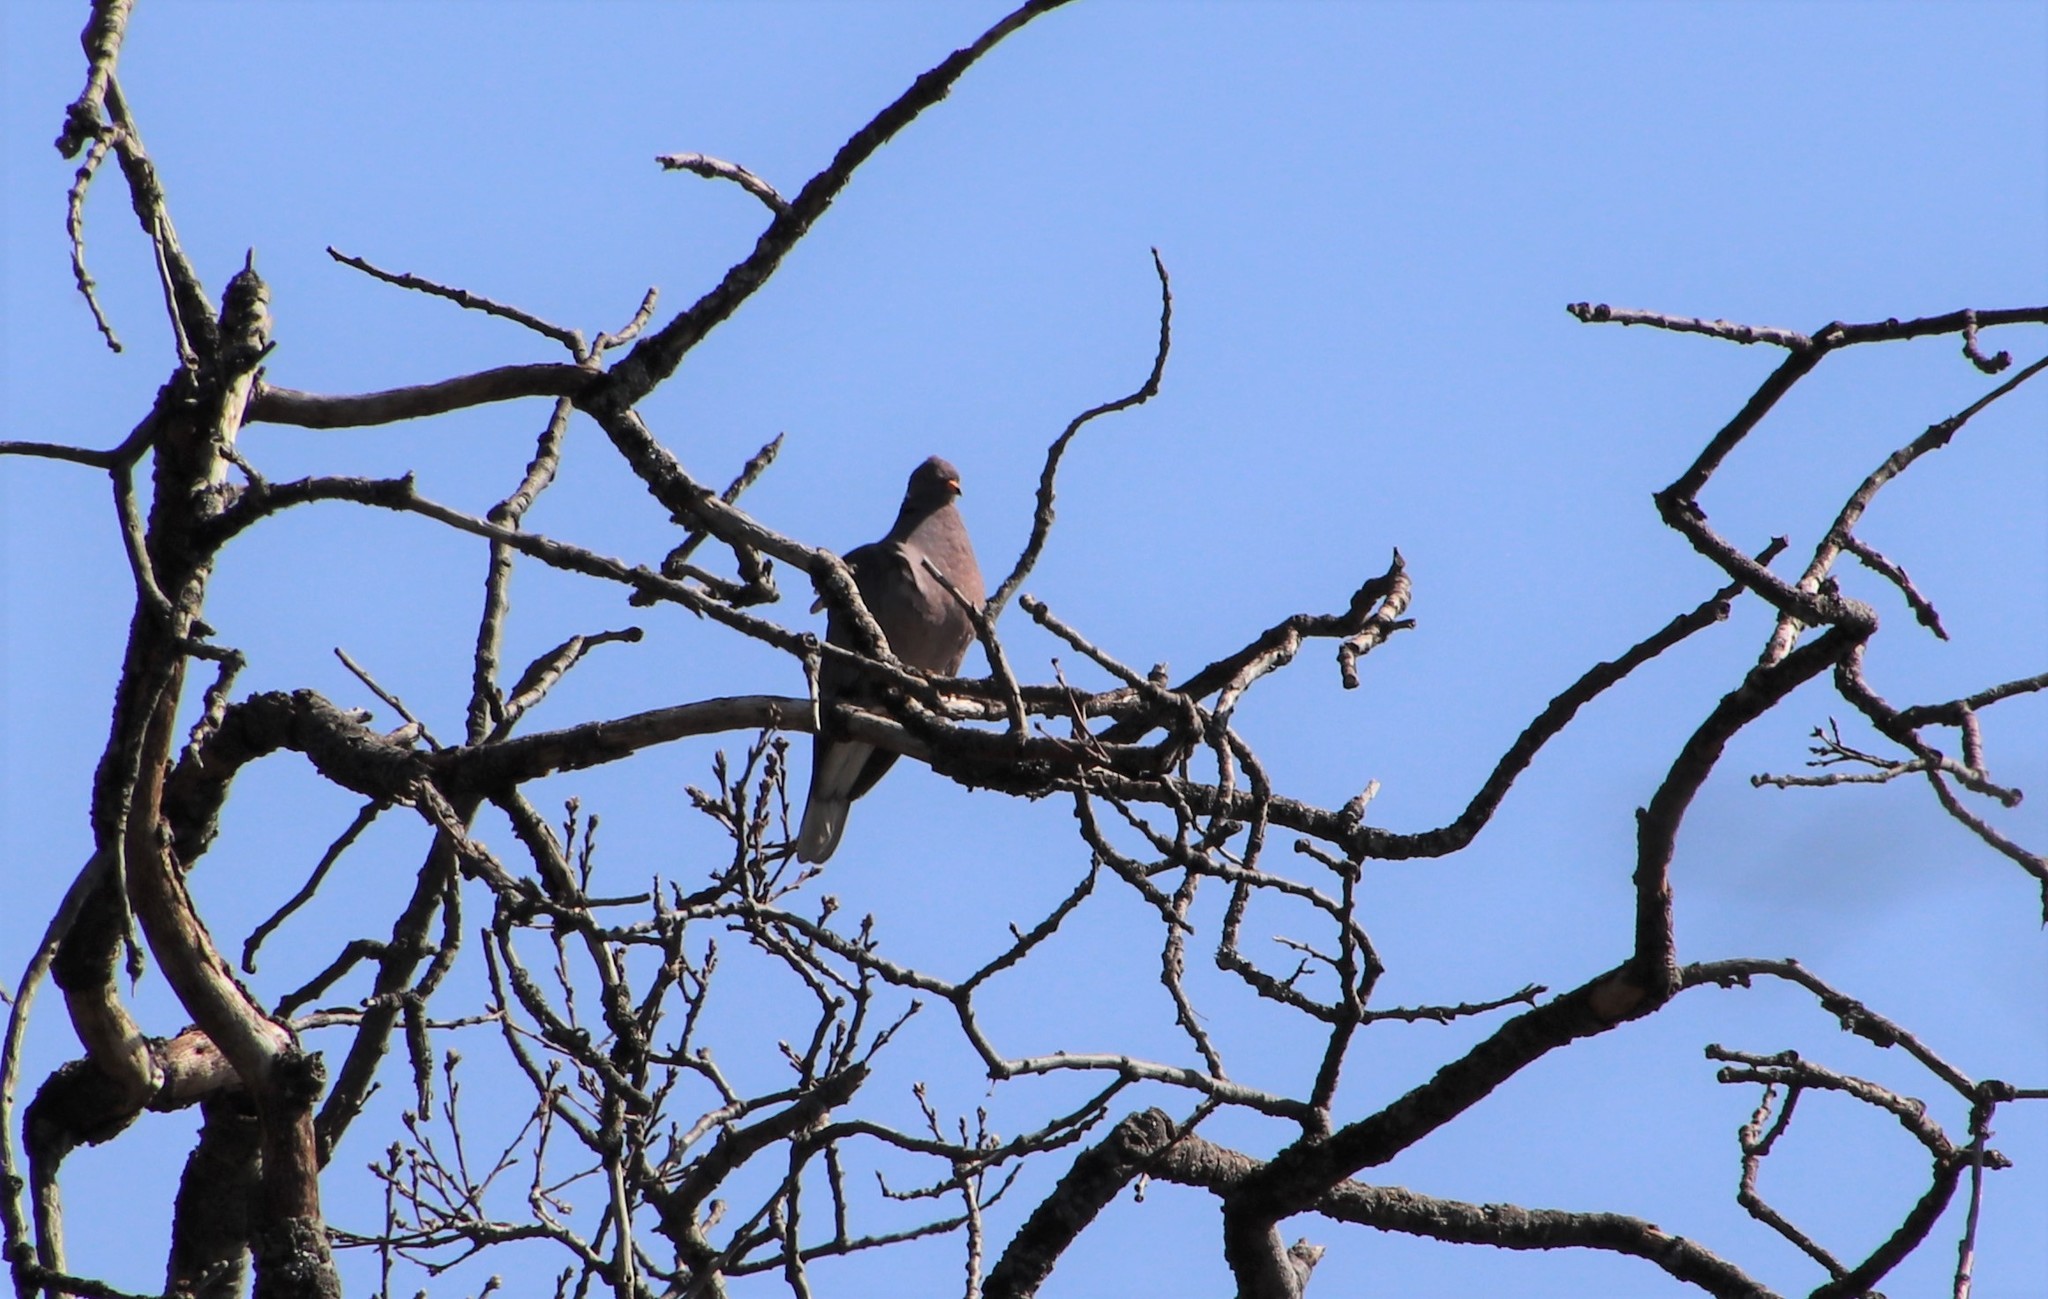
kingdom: Animalia
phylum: Chordata
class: Aves
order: Columbiformes
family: Columbidae
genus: Patagioenas
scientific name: Patagioenas fasciata
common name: Band-tailed pigeon
